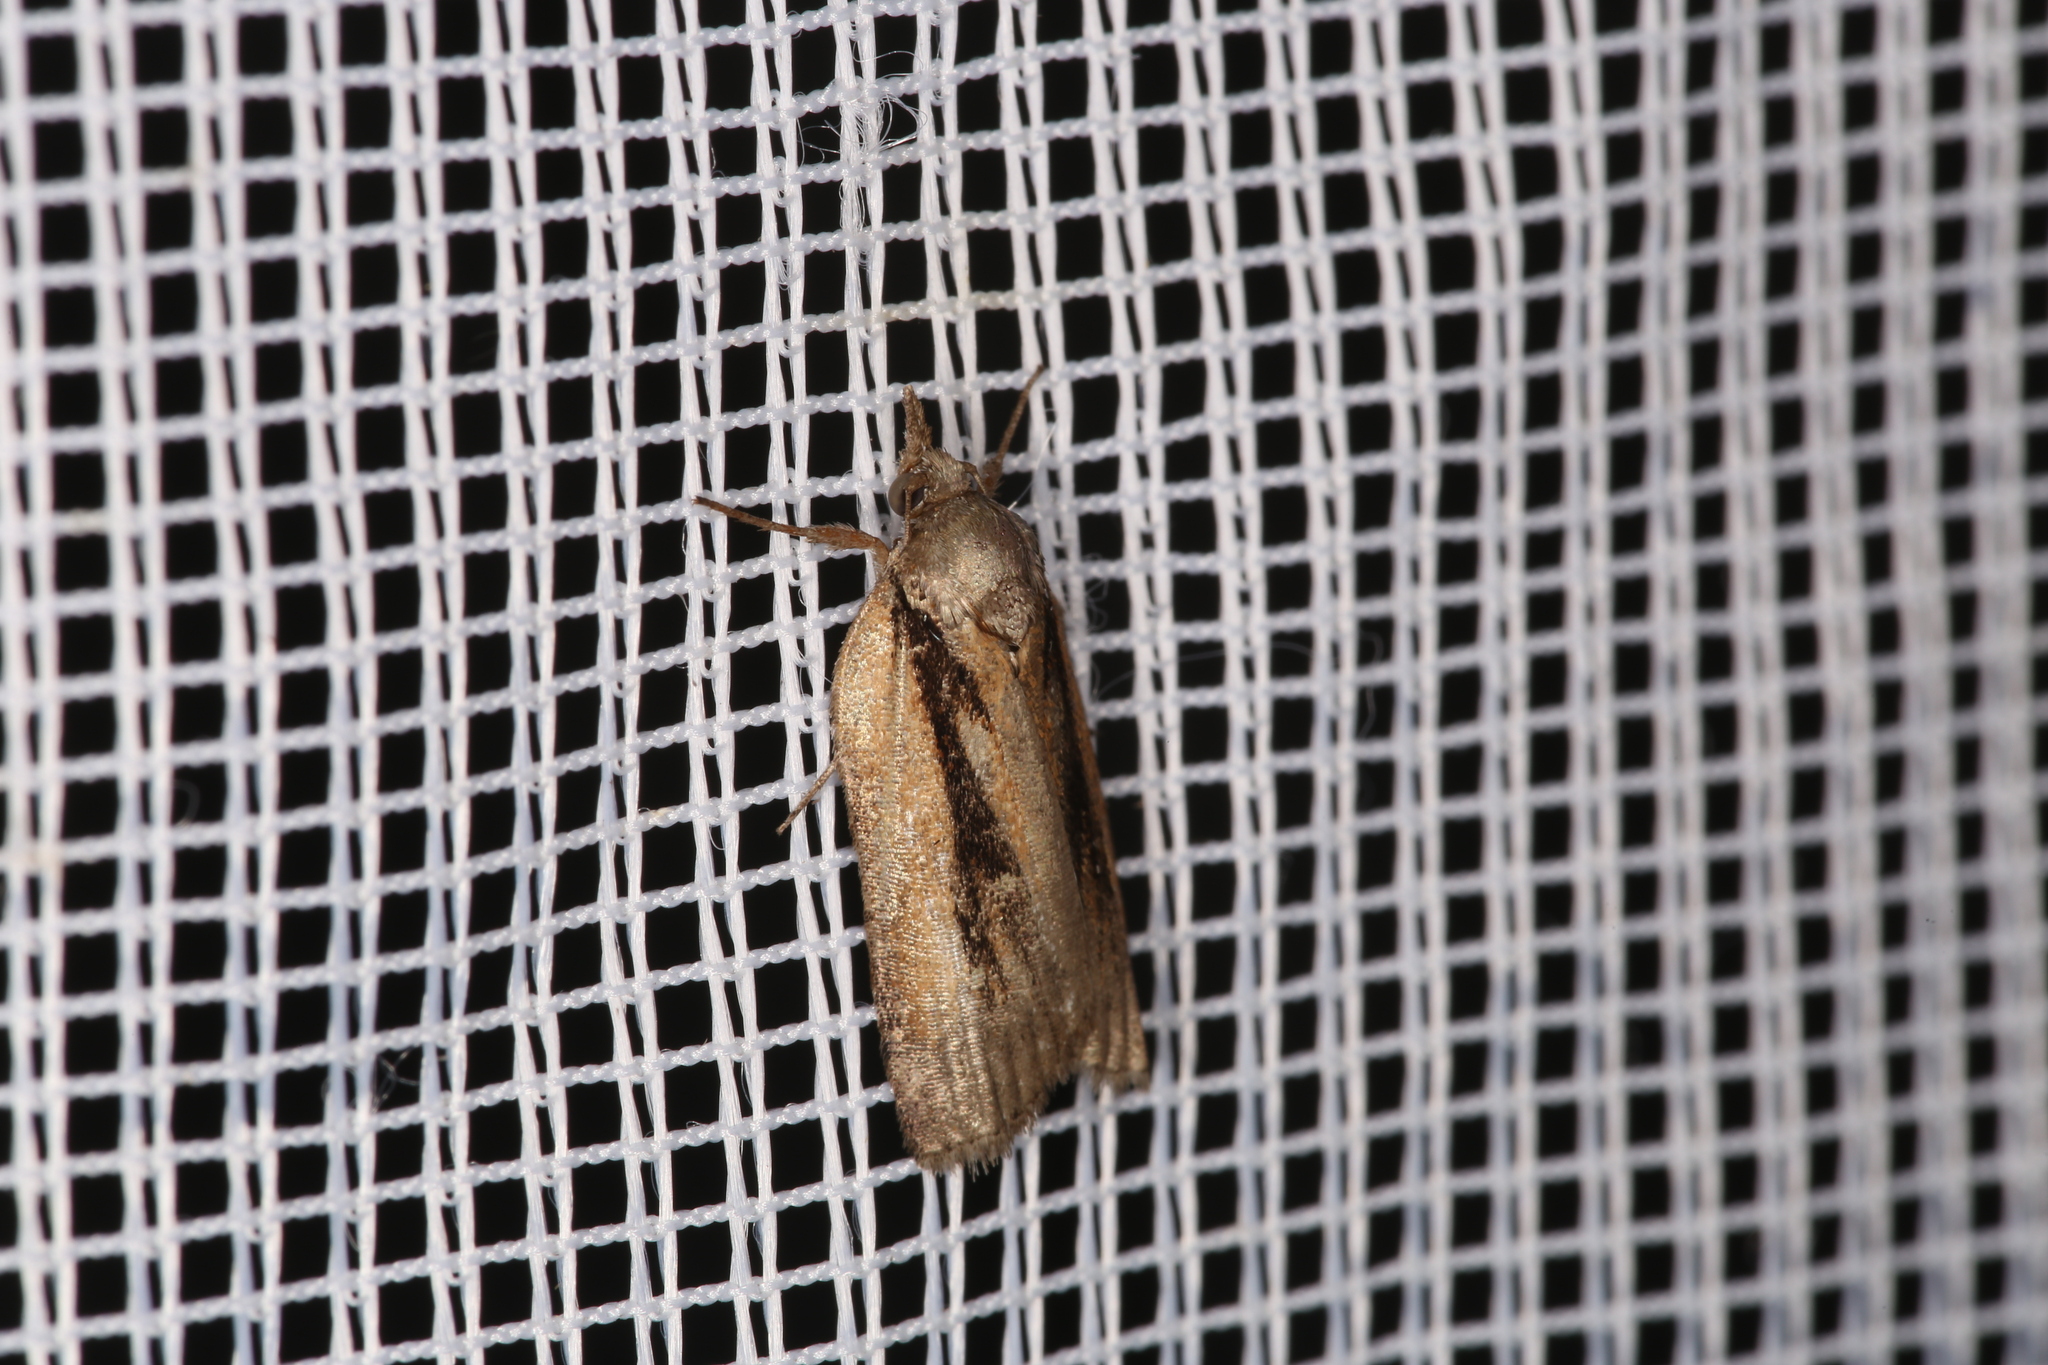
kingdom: Animalia
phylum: Arthropoda
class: Insecta
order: Lepidoptera
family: Nolidae
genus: Nycteola
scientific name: Nycteola revayana
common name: Oak nycteoline
